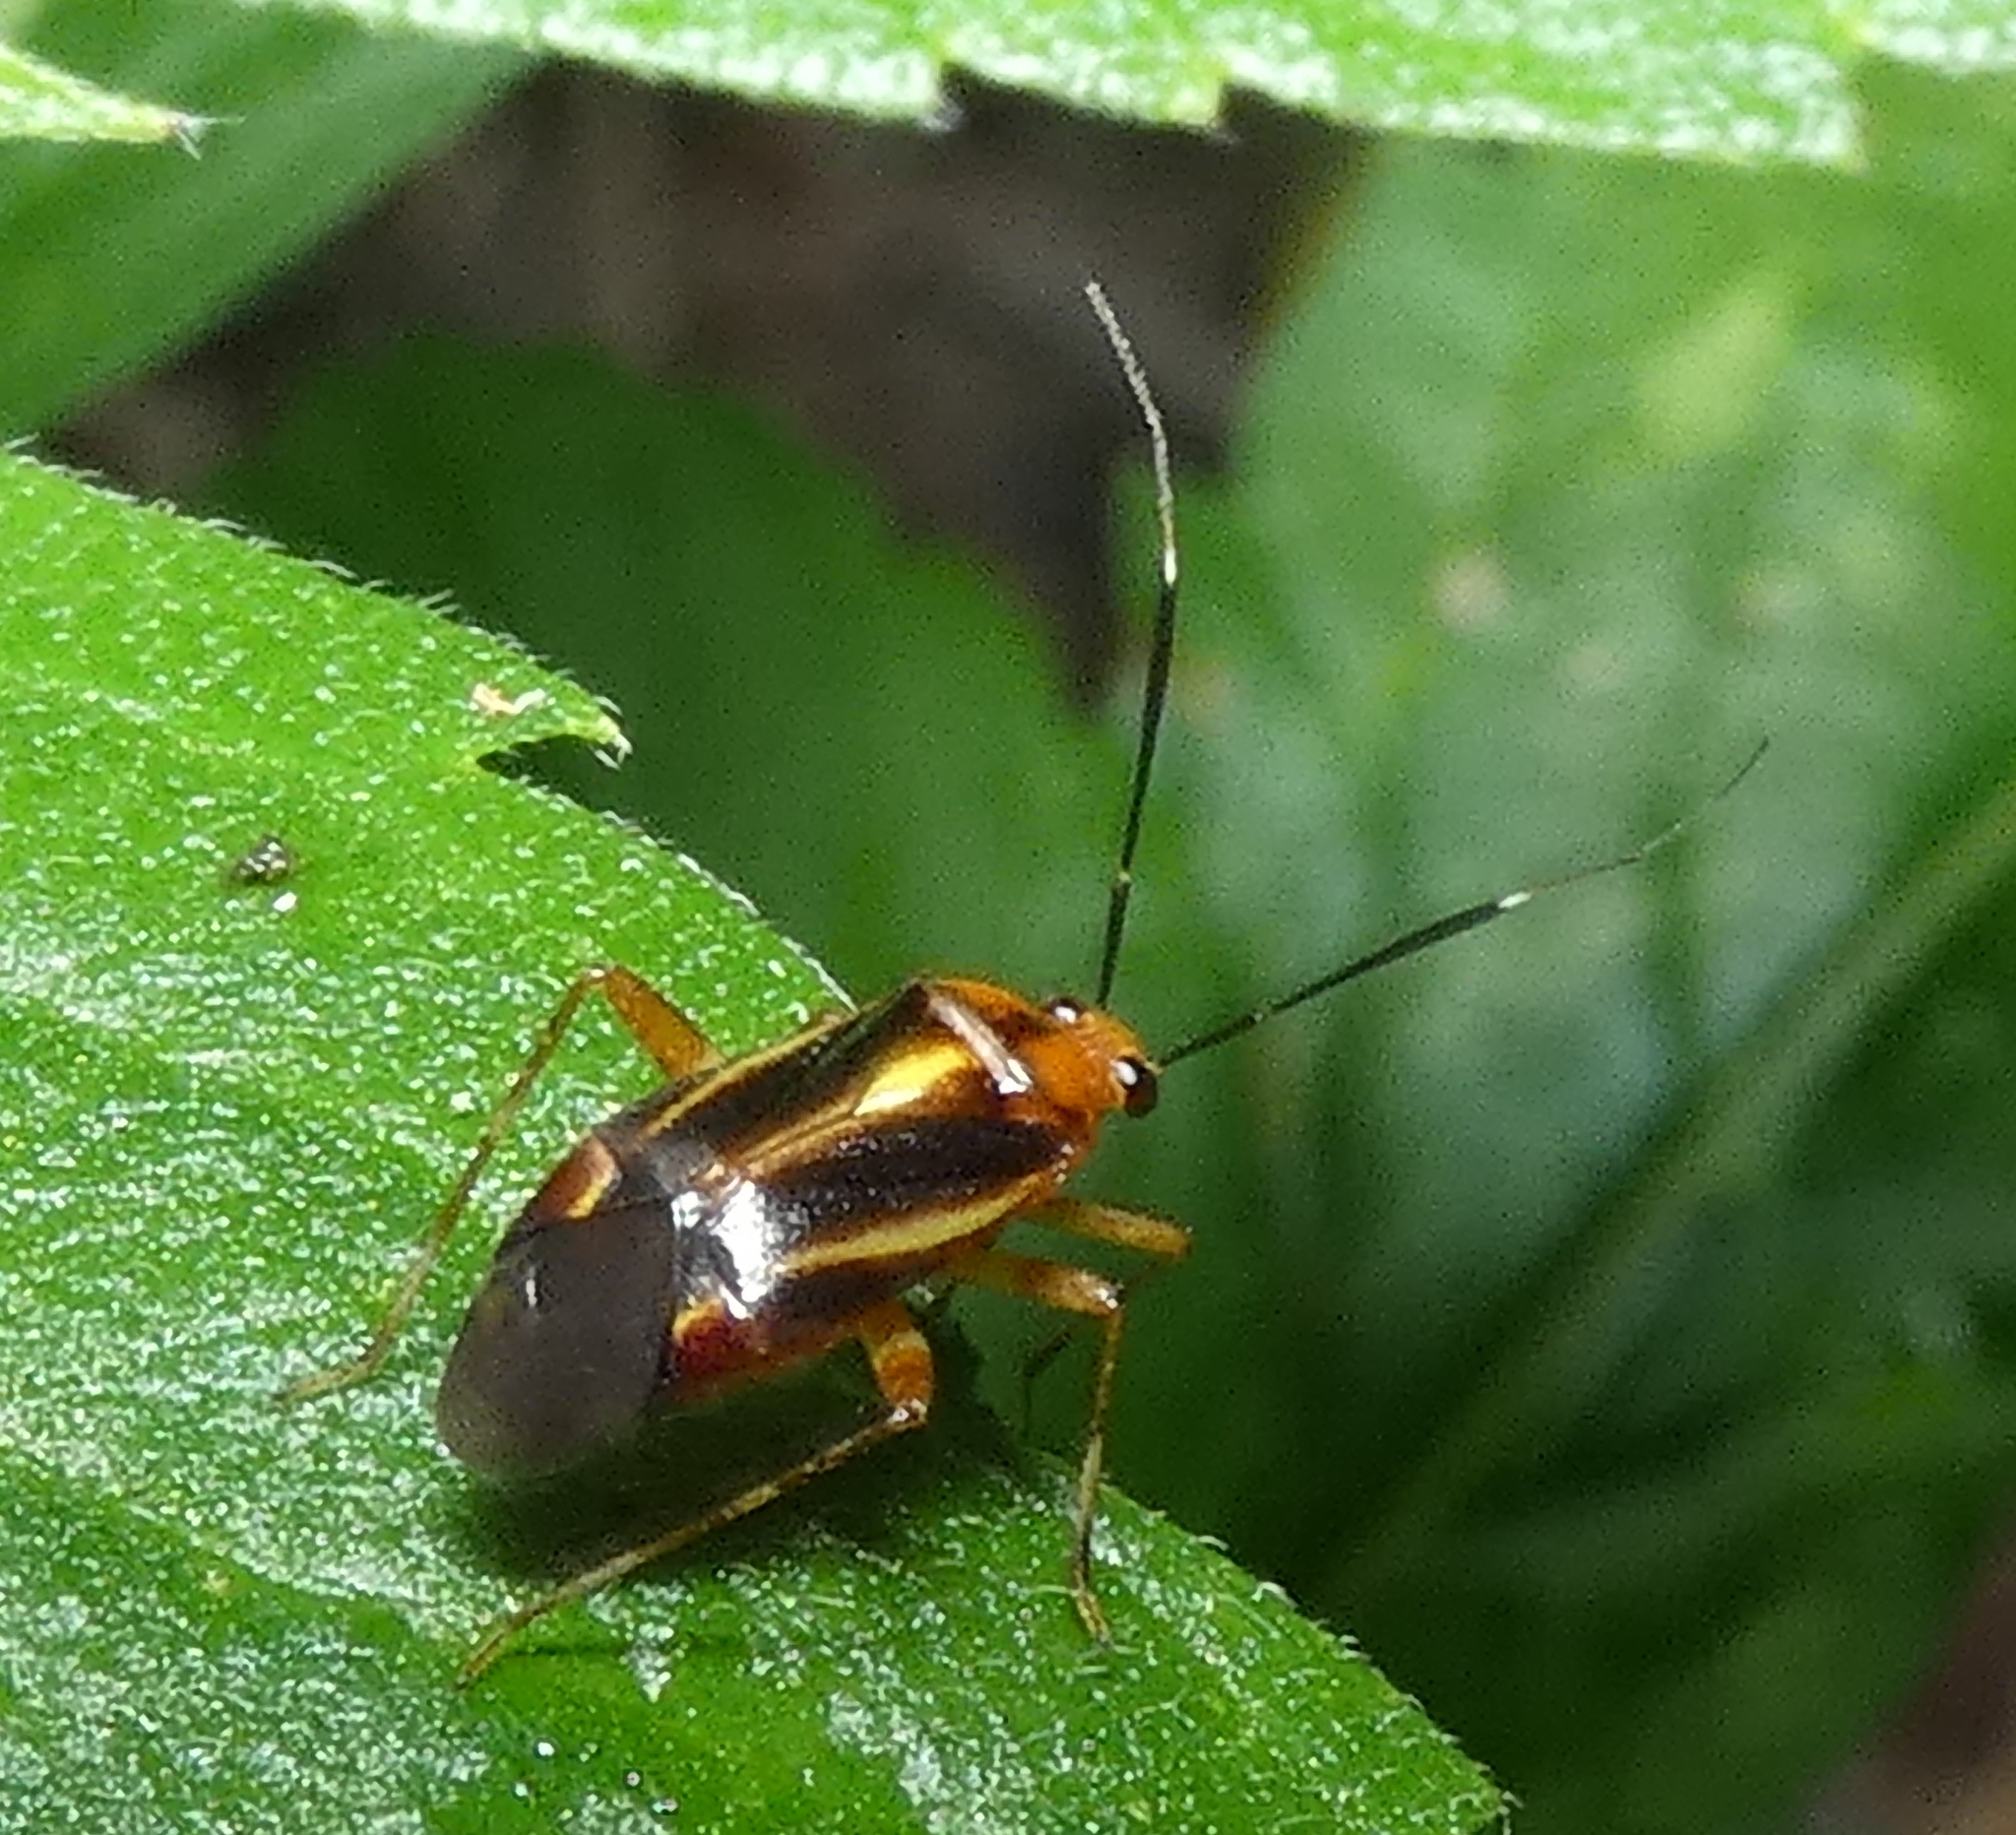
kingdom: Animalia
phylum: Arthropoda
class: Insecta
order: Hemiptera
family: Miridae
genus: Horciasinus
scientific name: Horciasinus signoreti
